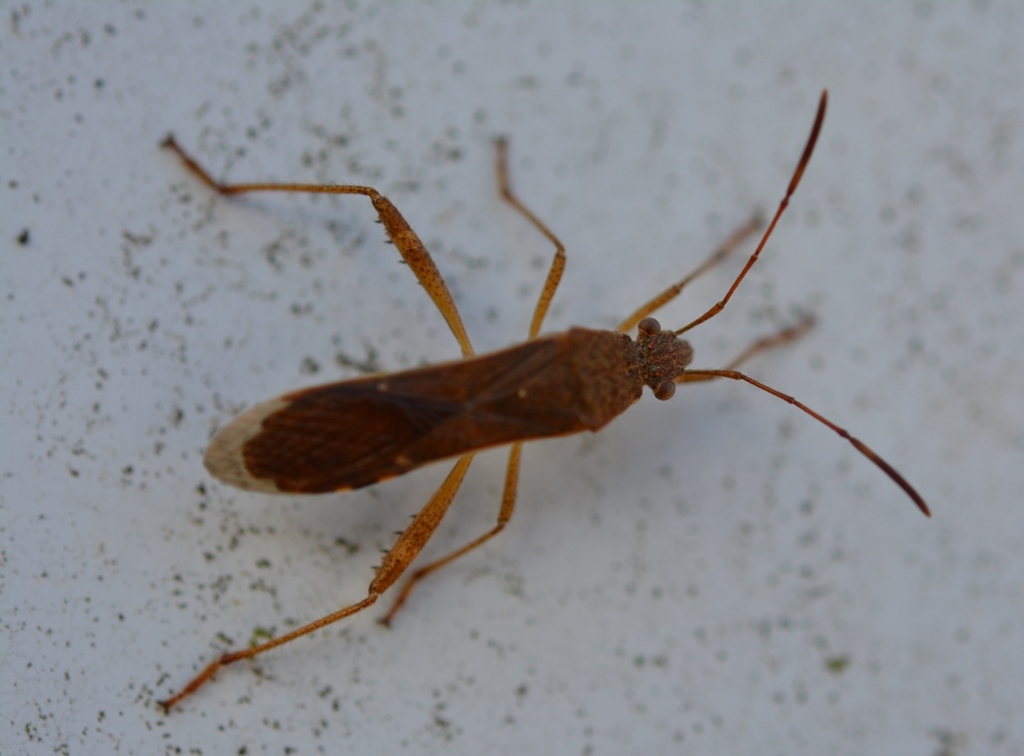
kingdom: Animalia
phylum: Arthropoda
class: Insecta
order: Hemiptera
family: Alydidae
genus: Burtinus
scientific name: Burtinus notatipennis
